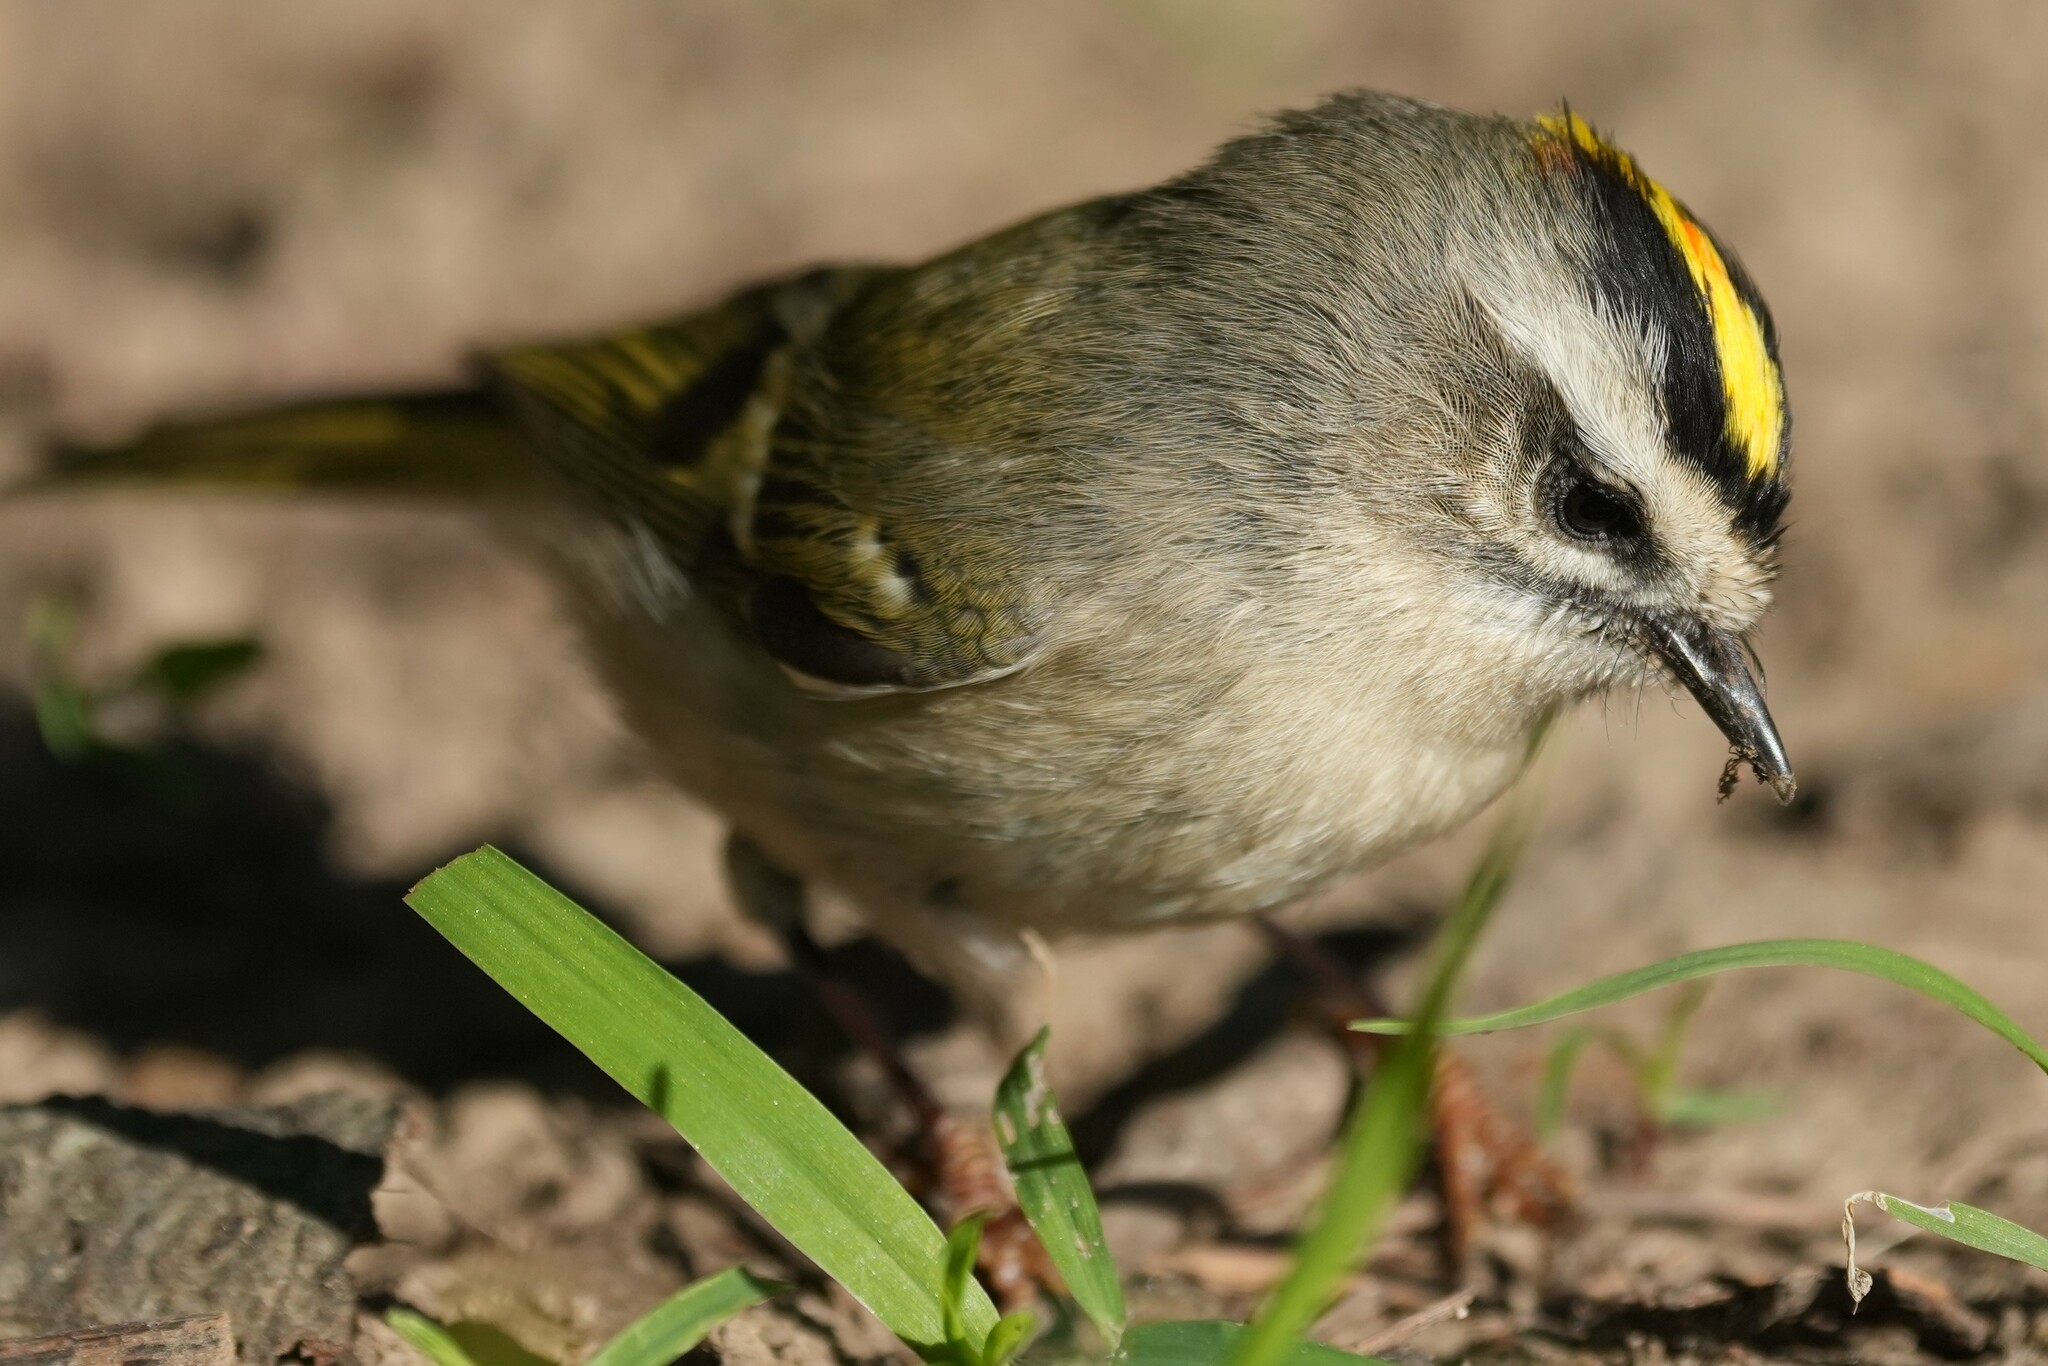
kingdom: Animalia
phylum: Chordata
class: Aves
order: Passeriformes
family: Regulidae
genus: Regulus
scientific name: Regulus satrapa
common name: Golden-crowned kinglet
